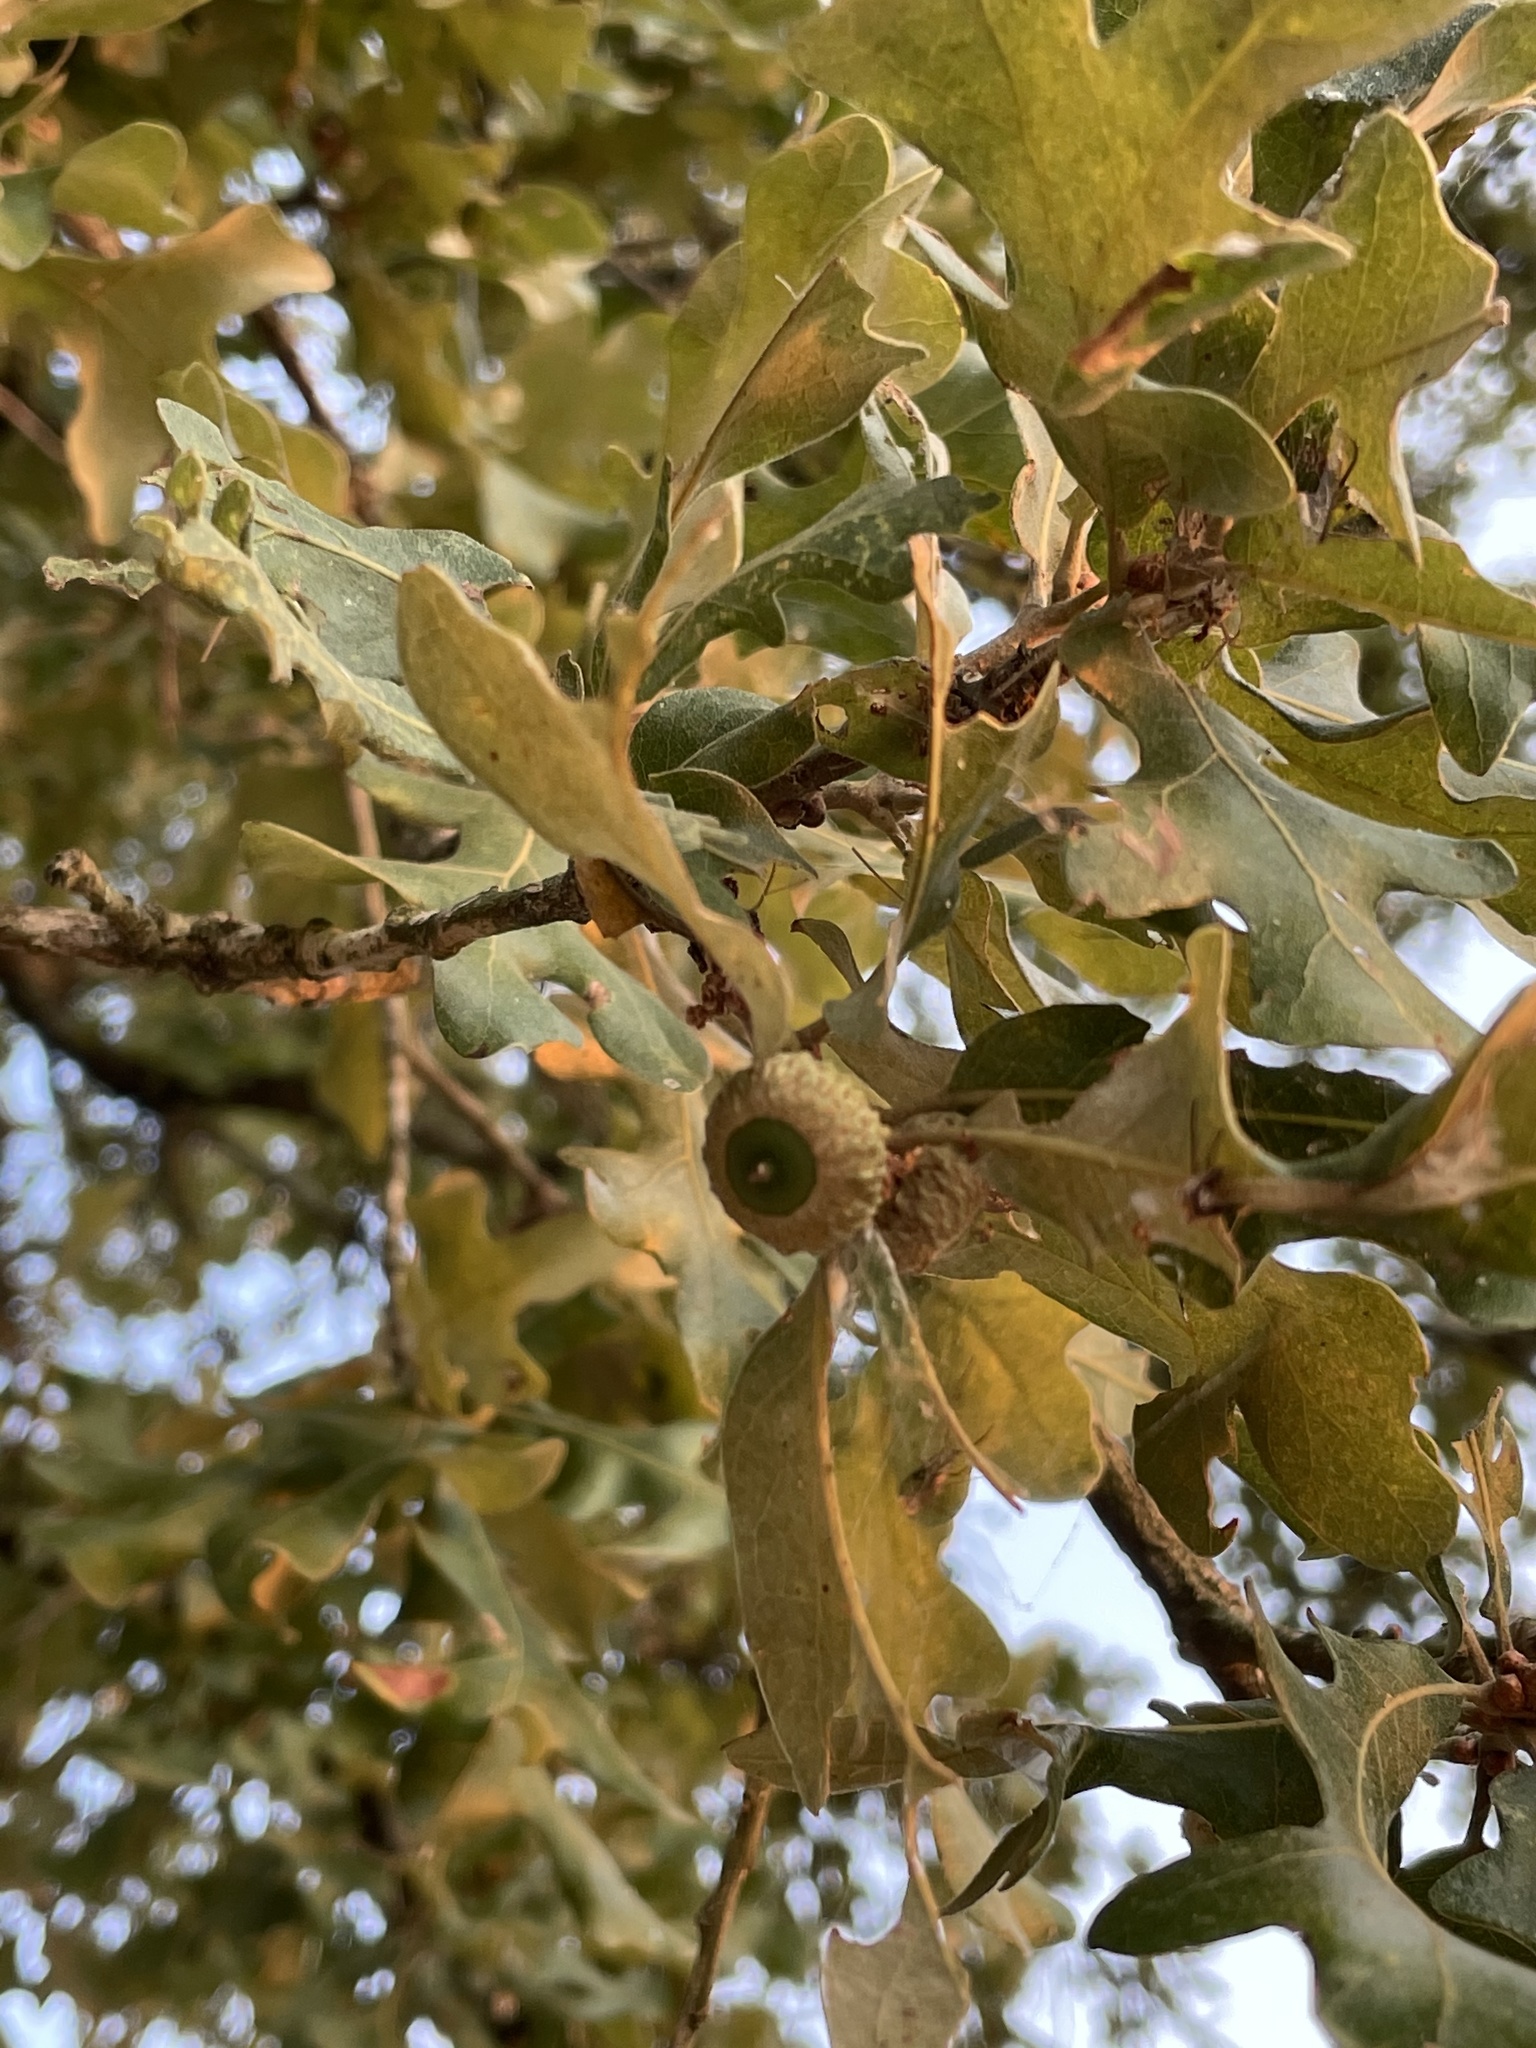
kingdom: Plantae
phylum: Tracheophyta
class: Magnoliopsida
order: Fagales
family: Fagaceae
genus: Quercus
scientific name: Quercus stellata
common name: Post oak
